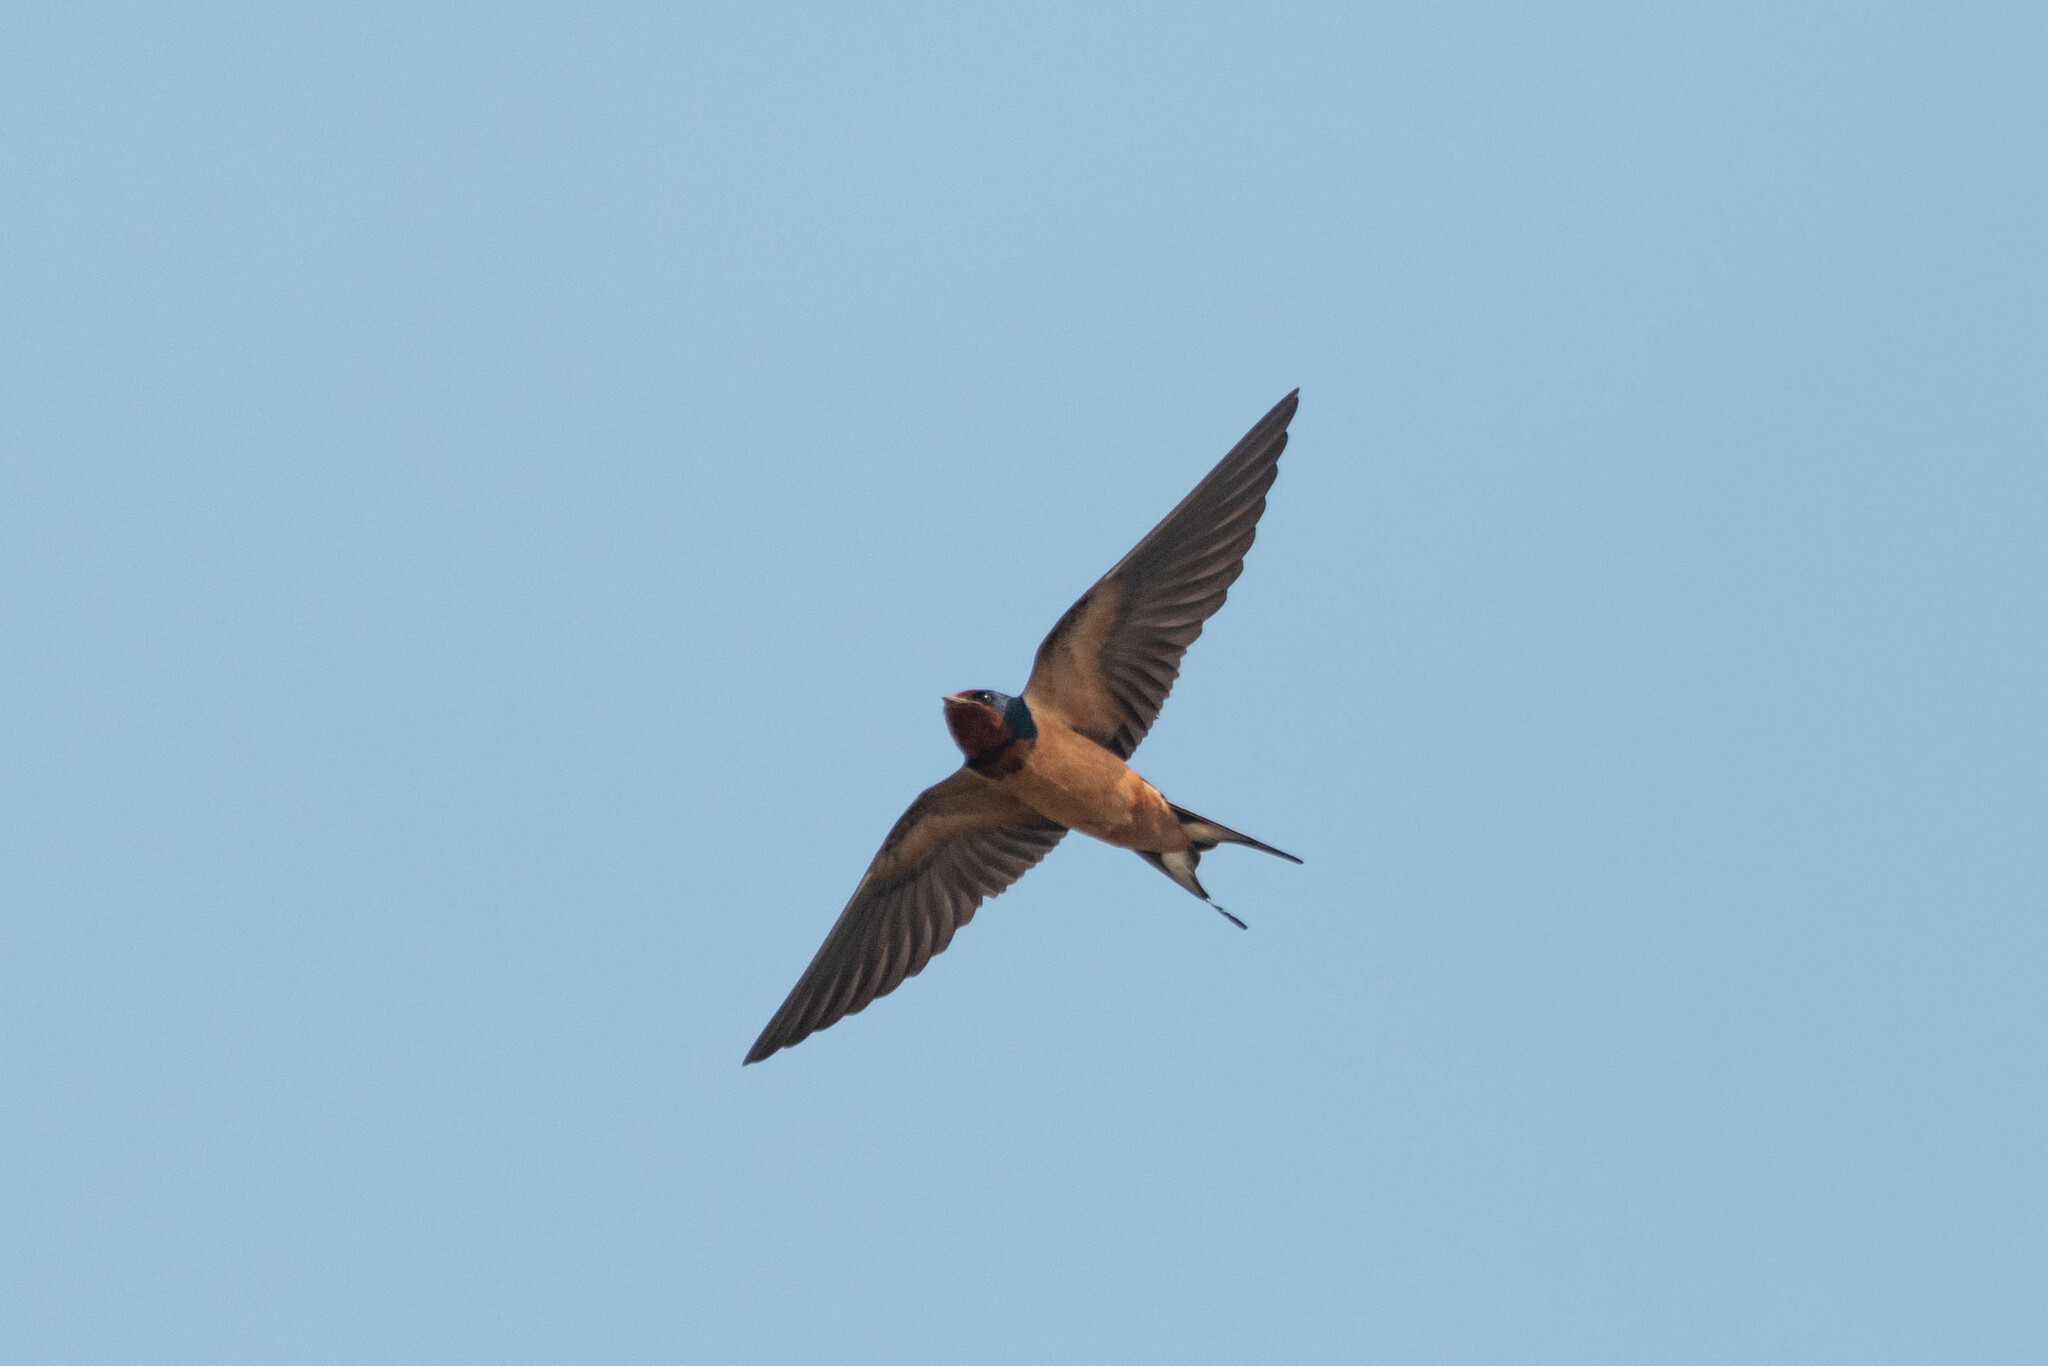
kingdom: Animalia
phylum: Chordata
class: Aves
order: Passeriformes
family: Hirundinidae
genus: Hirundo
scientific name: Hirundo rustica
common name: Barn swallow
